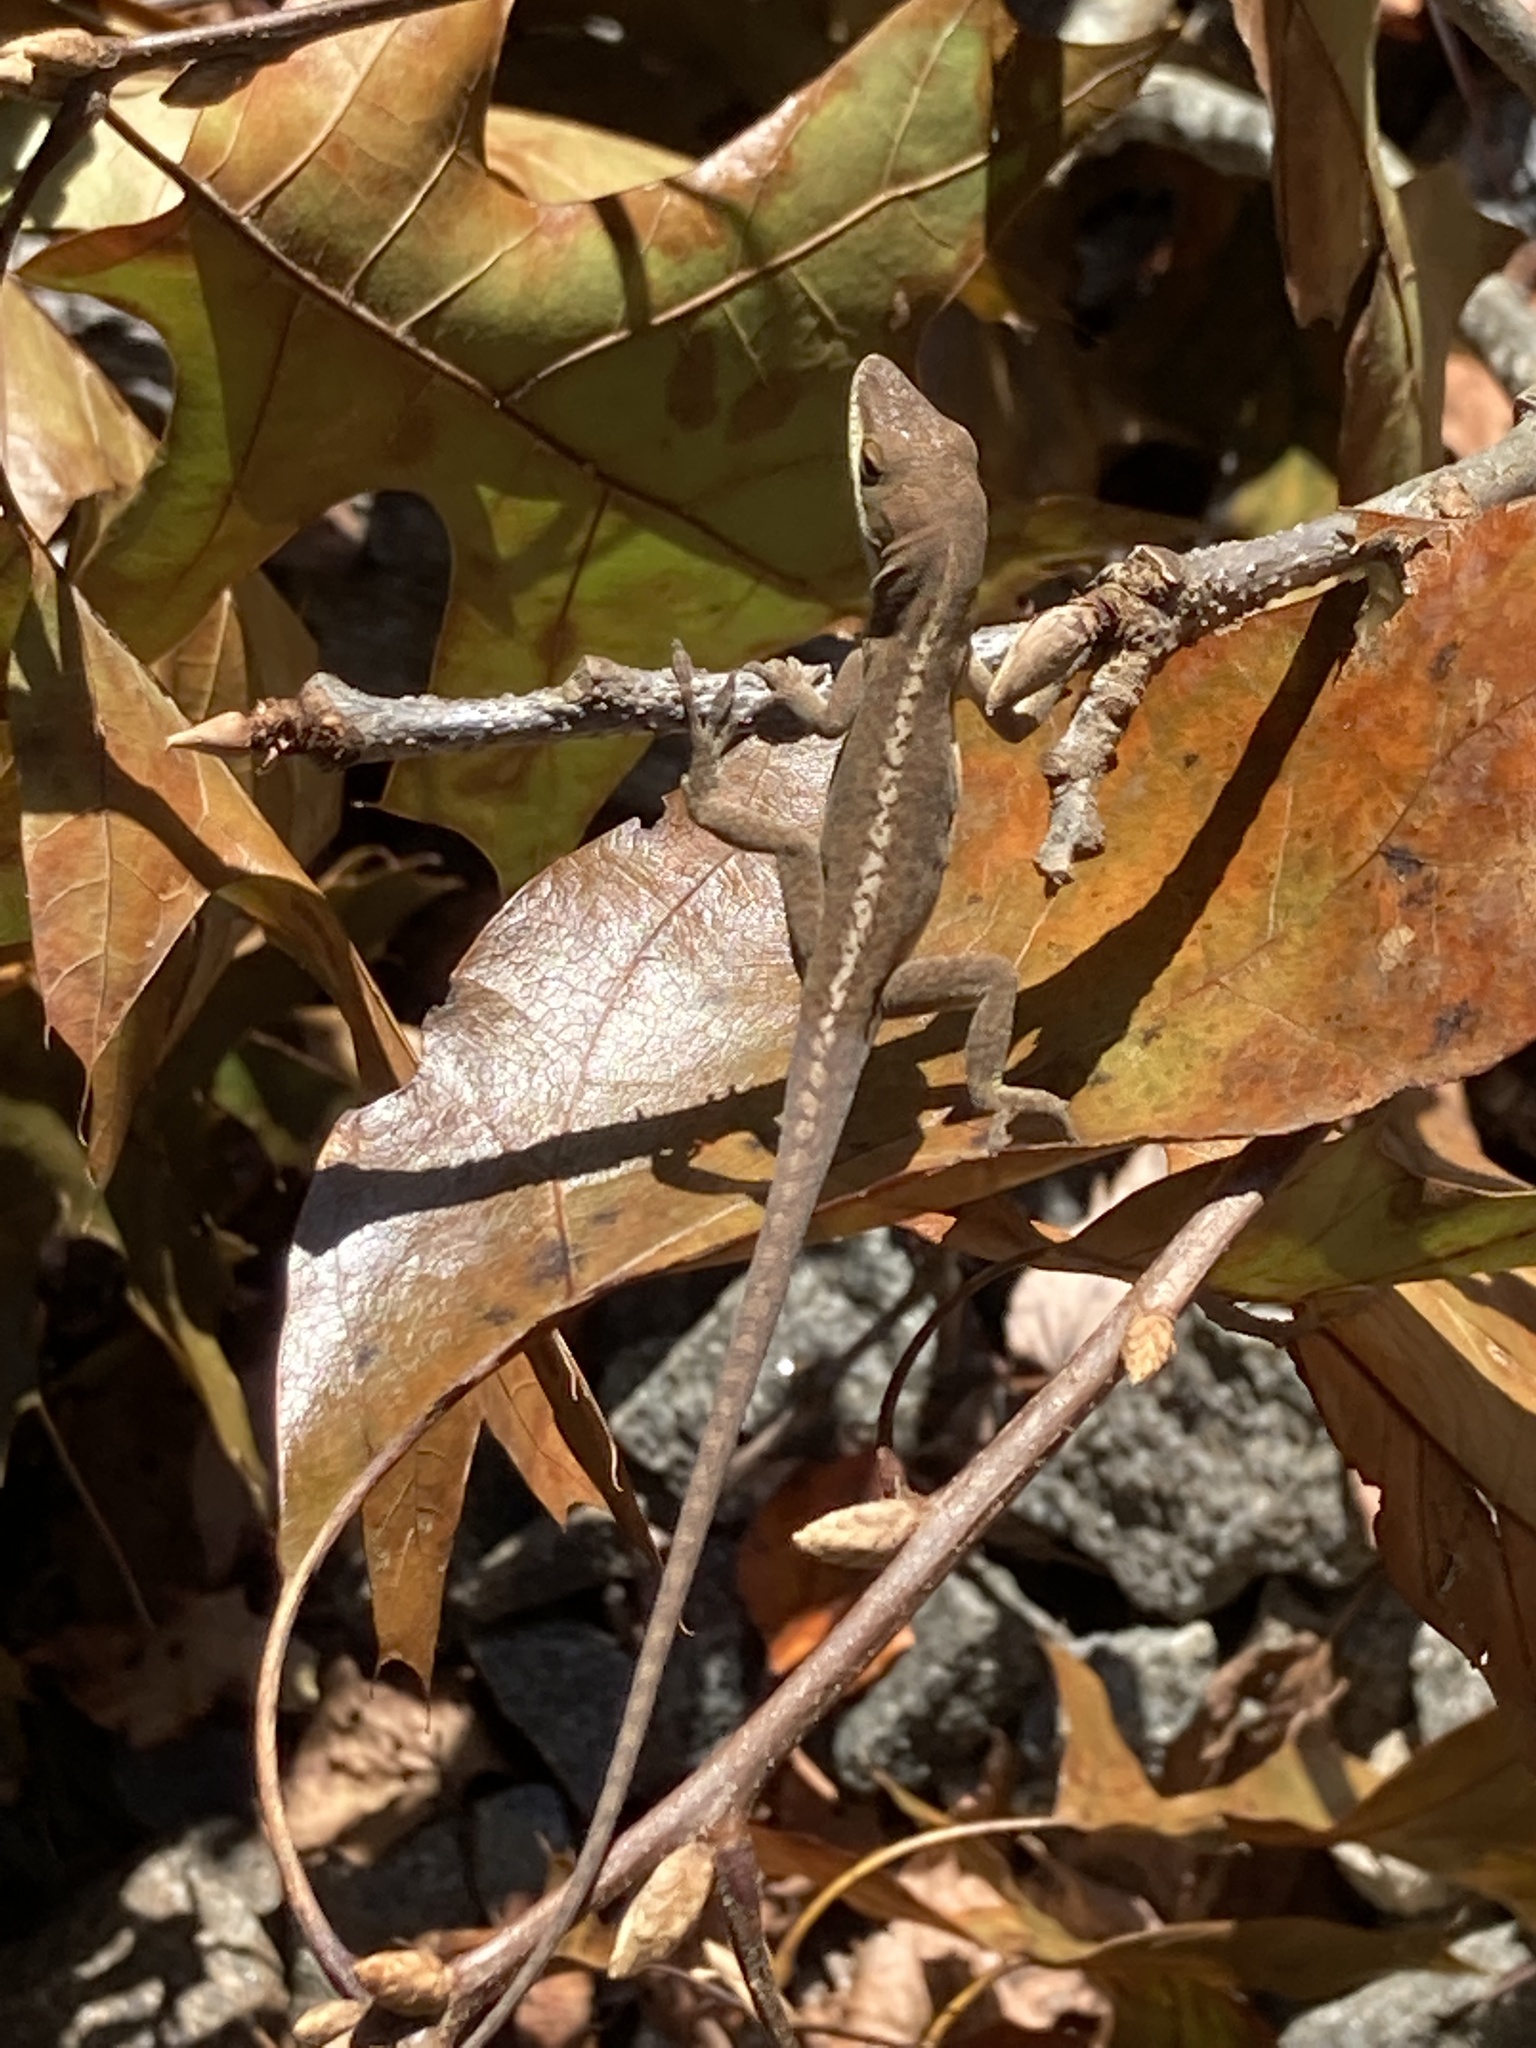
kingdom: Animalia
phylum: Chordata
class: Squamata
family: Dactyloidae
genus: Anolis
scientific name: Anolis carolinensis
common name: Green anole
